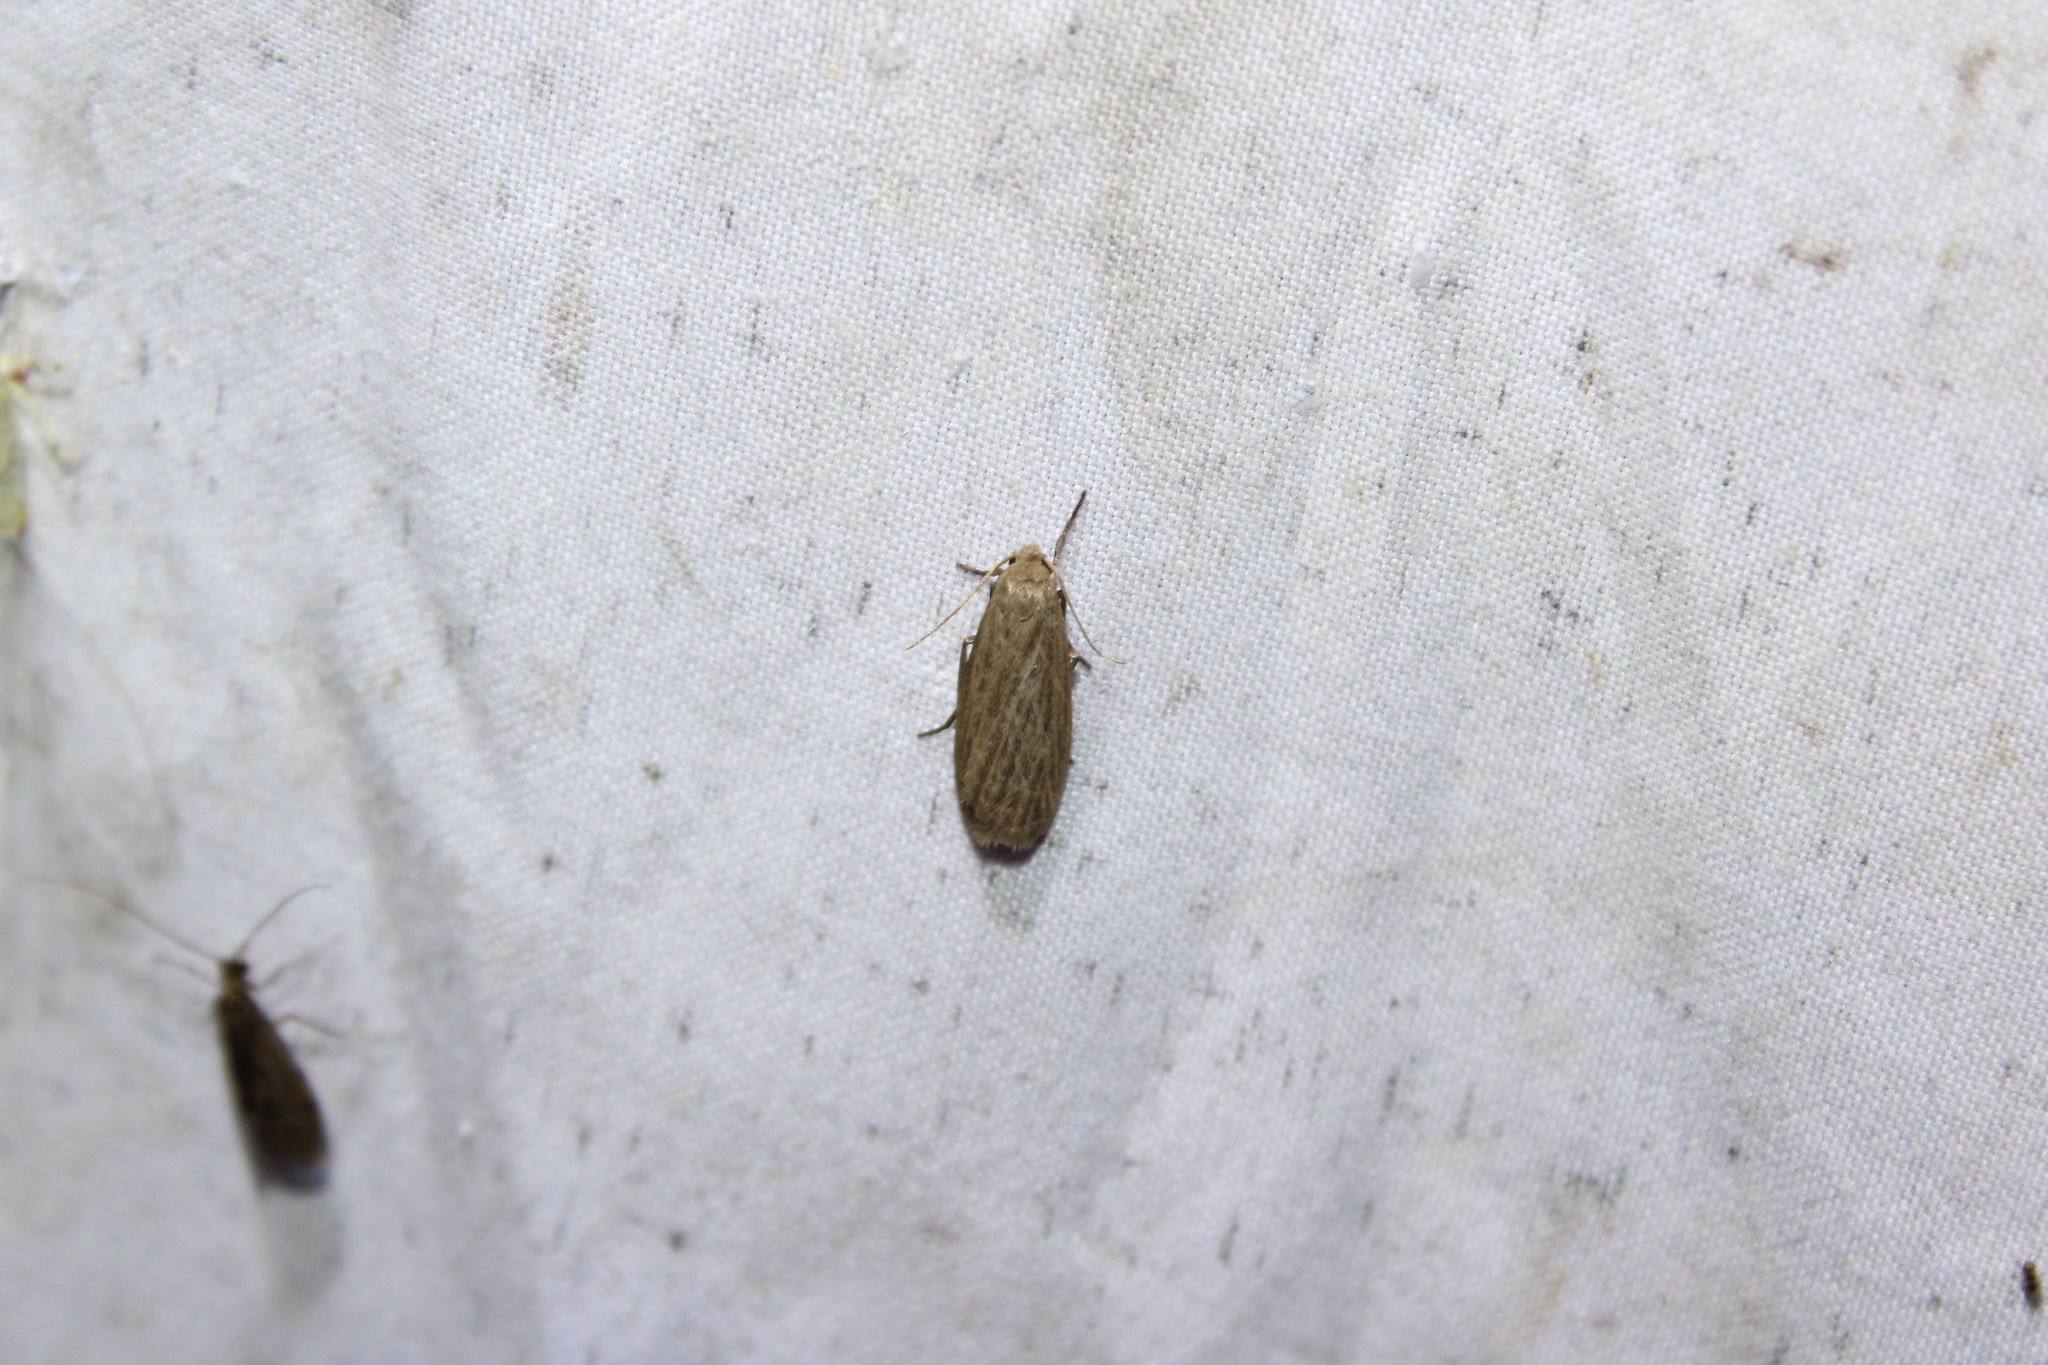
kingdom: Animalia
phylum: Arthropoda
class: Insecta
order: Lepidoptera
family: Erebidae
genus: Crambidia
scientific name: Crambidia pallida
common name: Pale lichen moth
